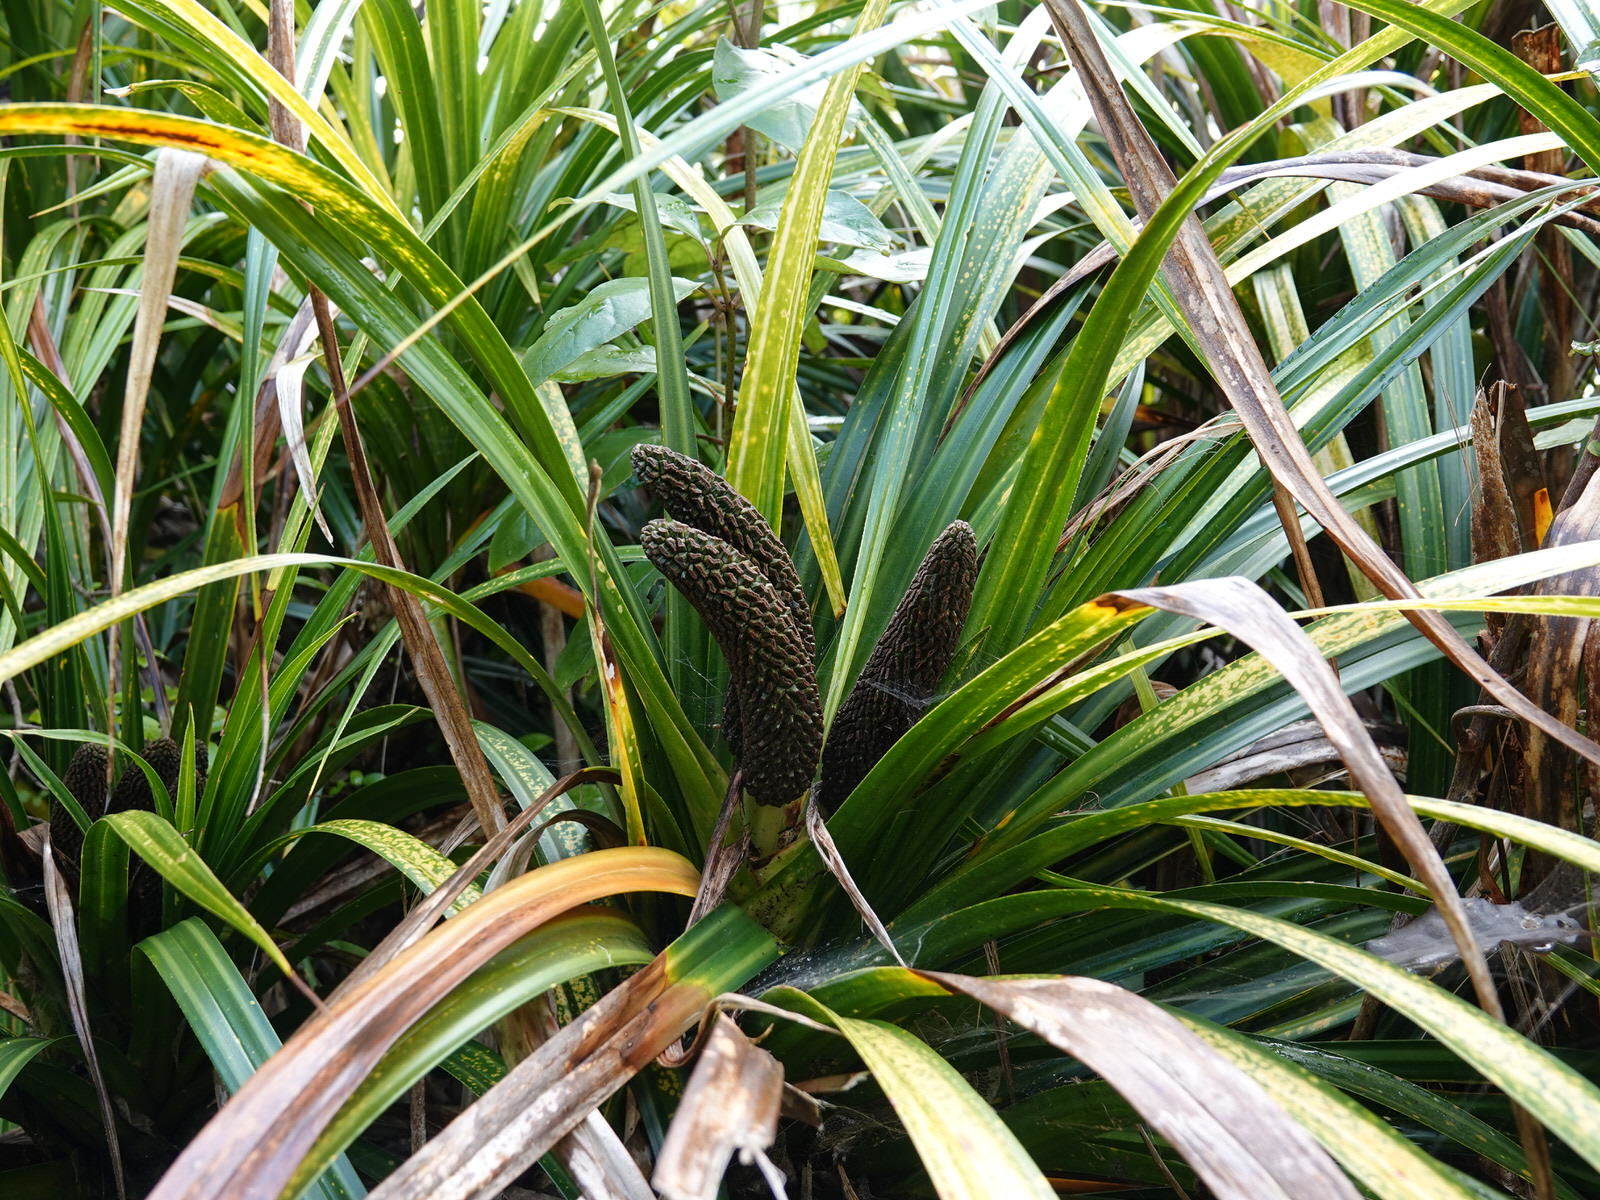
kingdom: Plantae
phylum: Tracheophyta
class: Liliopsida
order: Pandanales
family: Pandanaceae
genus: Freycinetia
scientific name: Freycinetia banksii
